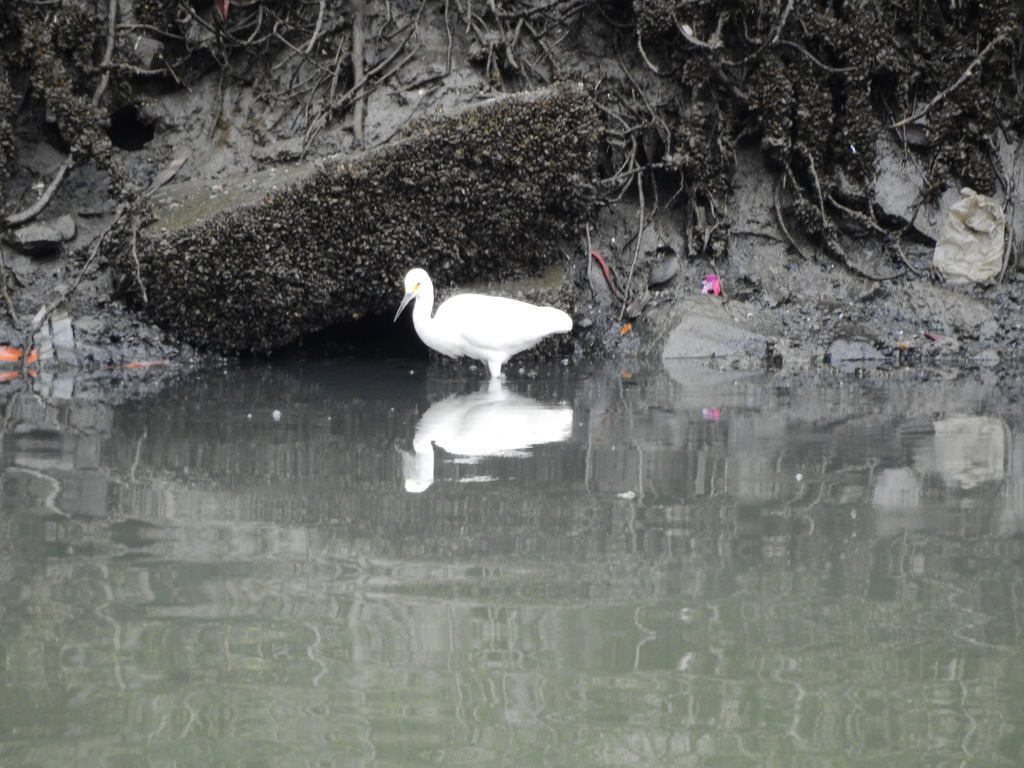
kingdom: Animalia
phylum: Chordata
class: Aves
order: Pelecaniformes
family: Ardeidae
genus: Egretta
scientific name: Egretta thula
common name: Snowy egret
